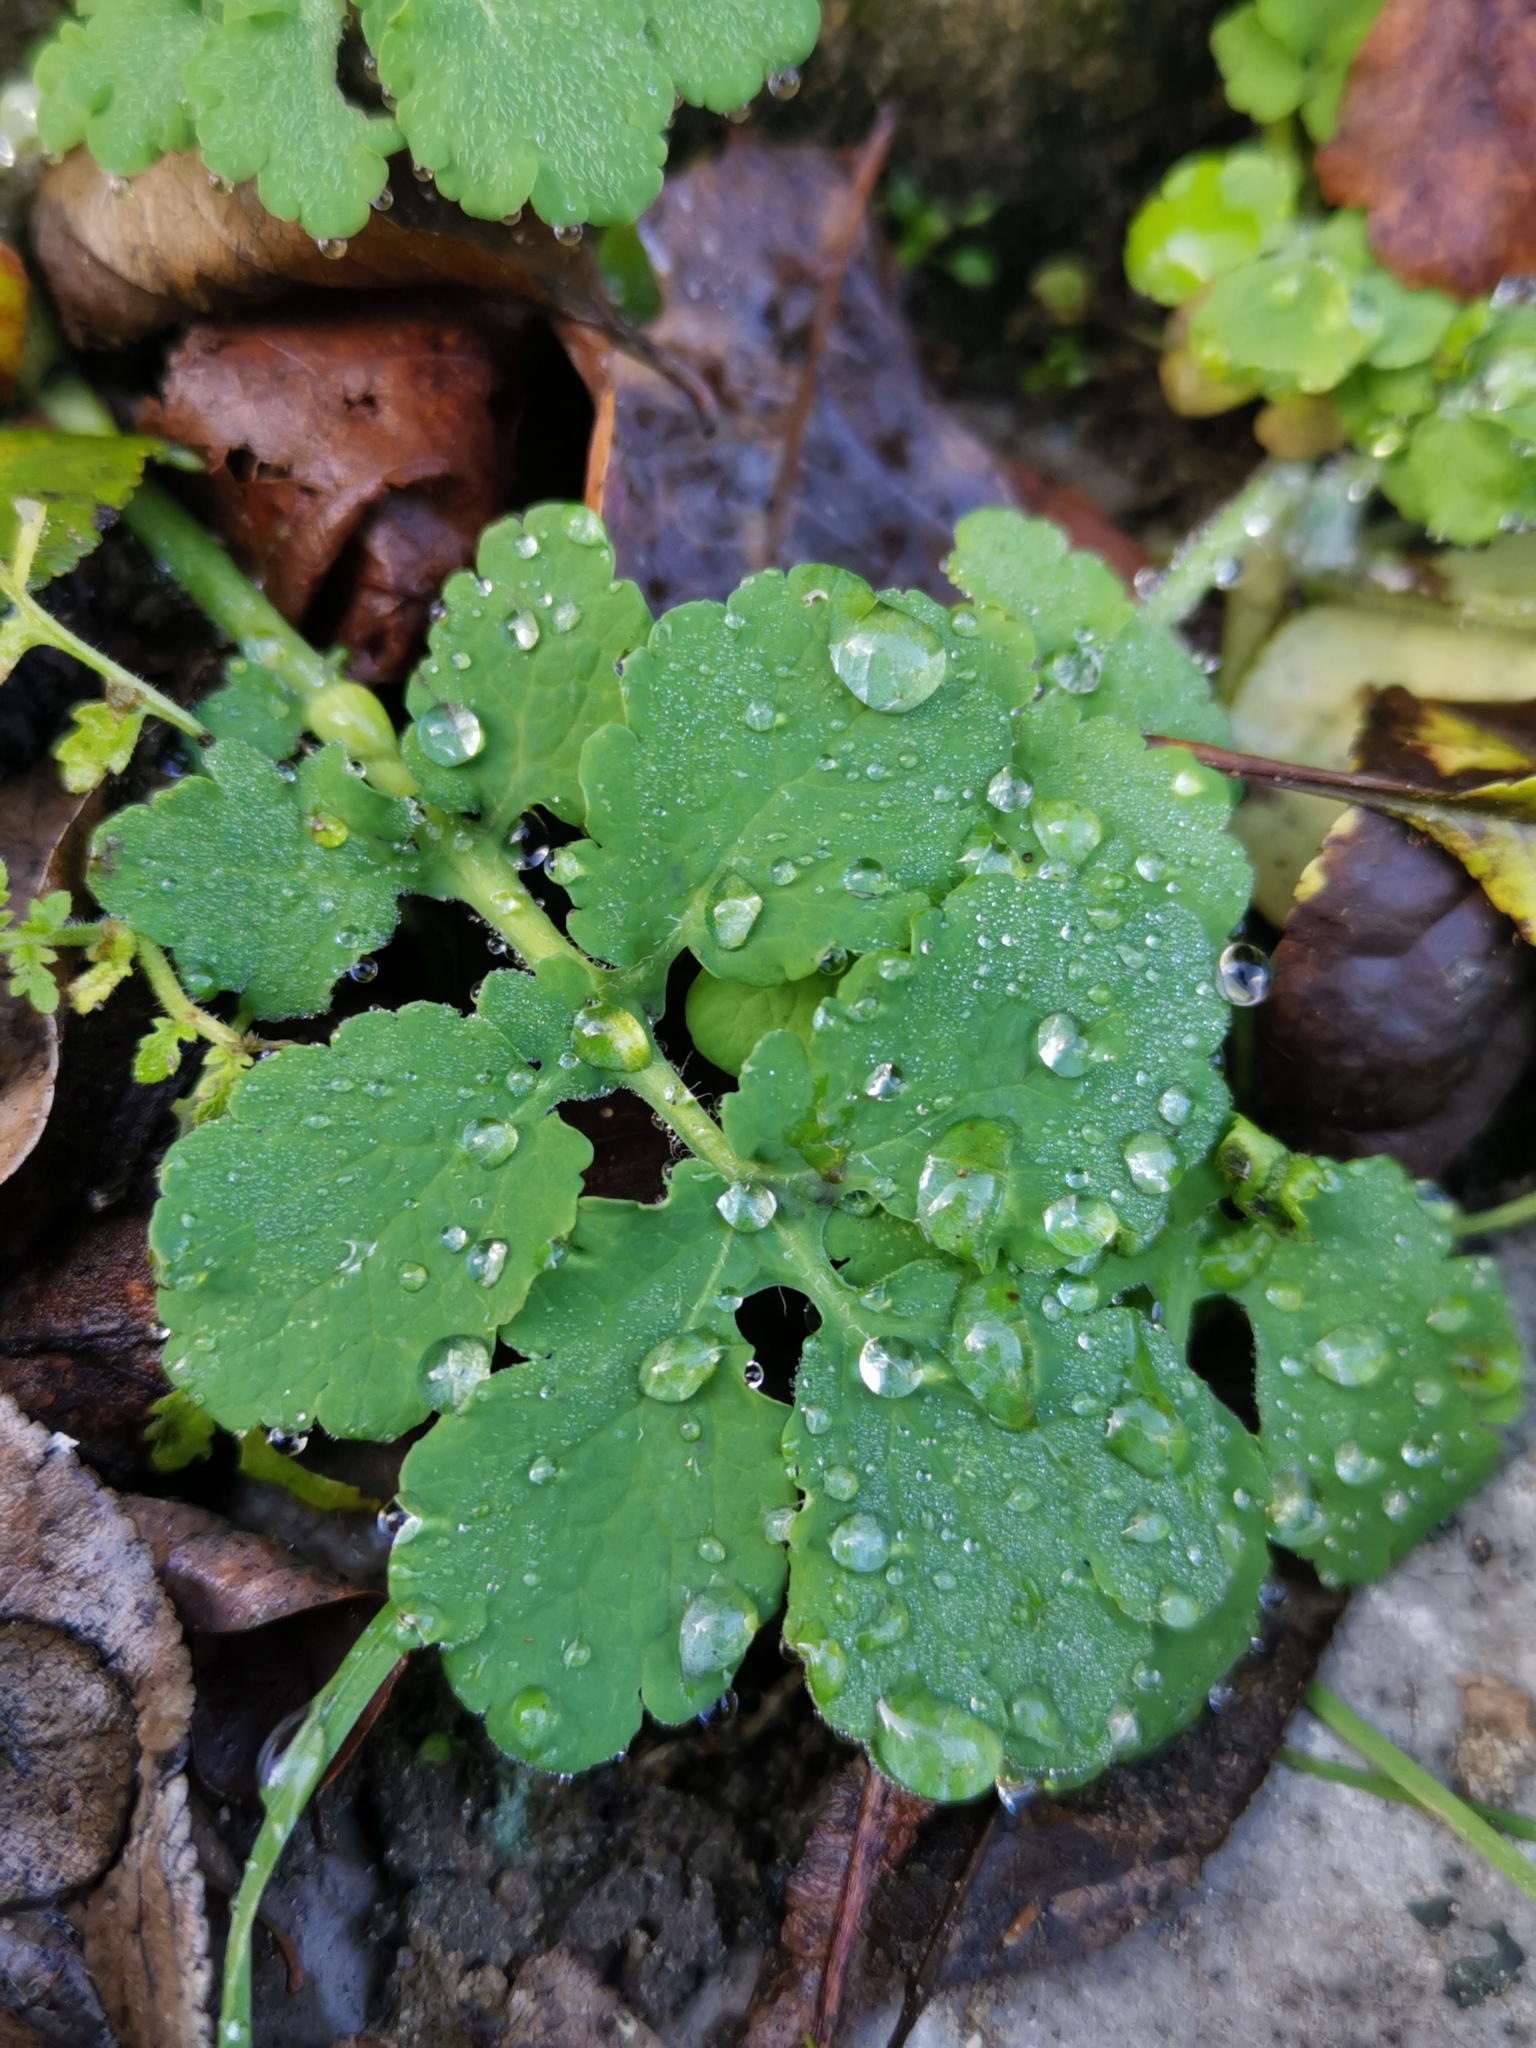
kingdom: Plantae
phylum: Tracheophyta
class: Magnoliopsida
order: Ranunculales
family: Papaveraceae
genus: Chelidonium
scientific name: Chelidonium majus
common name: Greater celandine
